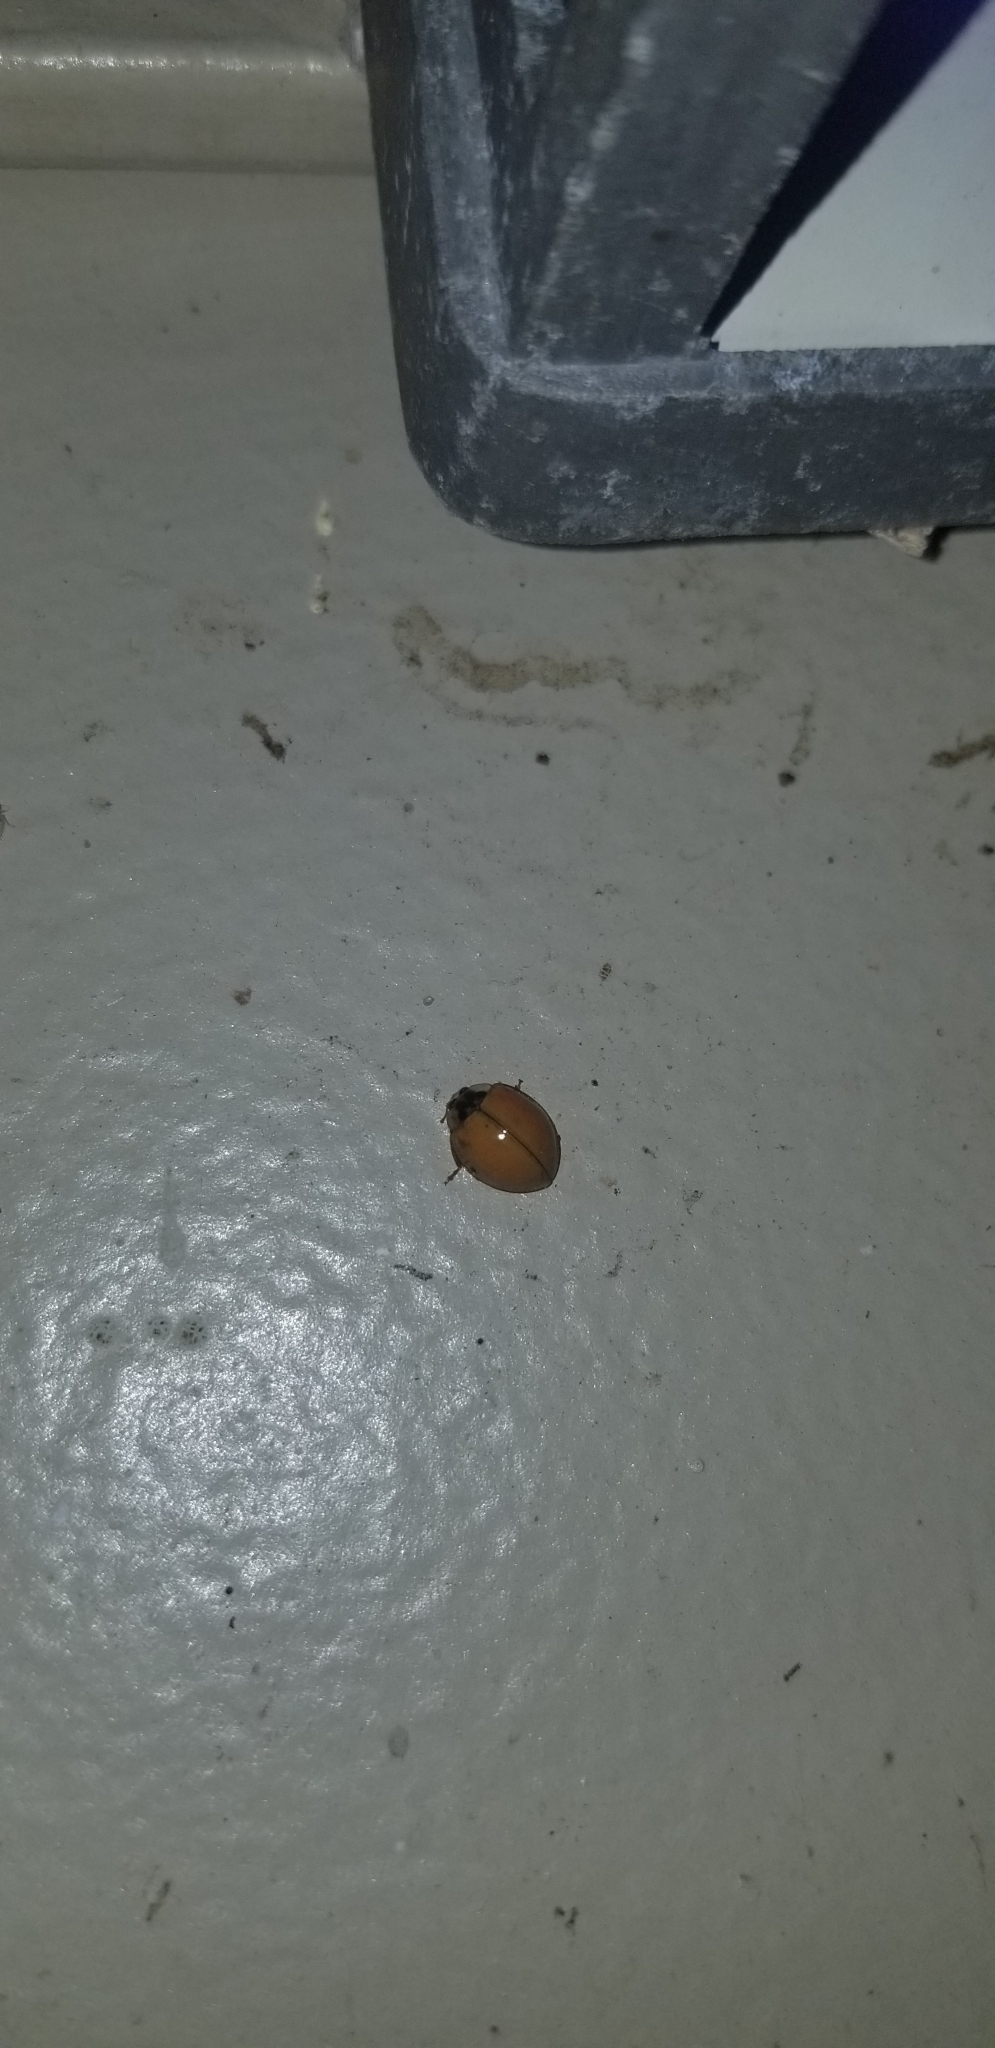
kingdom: Animalia
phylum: Arthropoda
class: Insecta
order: Coleoptera
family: Coccinellidae
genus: Harmonia
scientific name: Harmonia axyridis
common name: Harlequin ladybird
